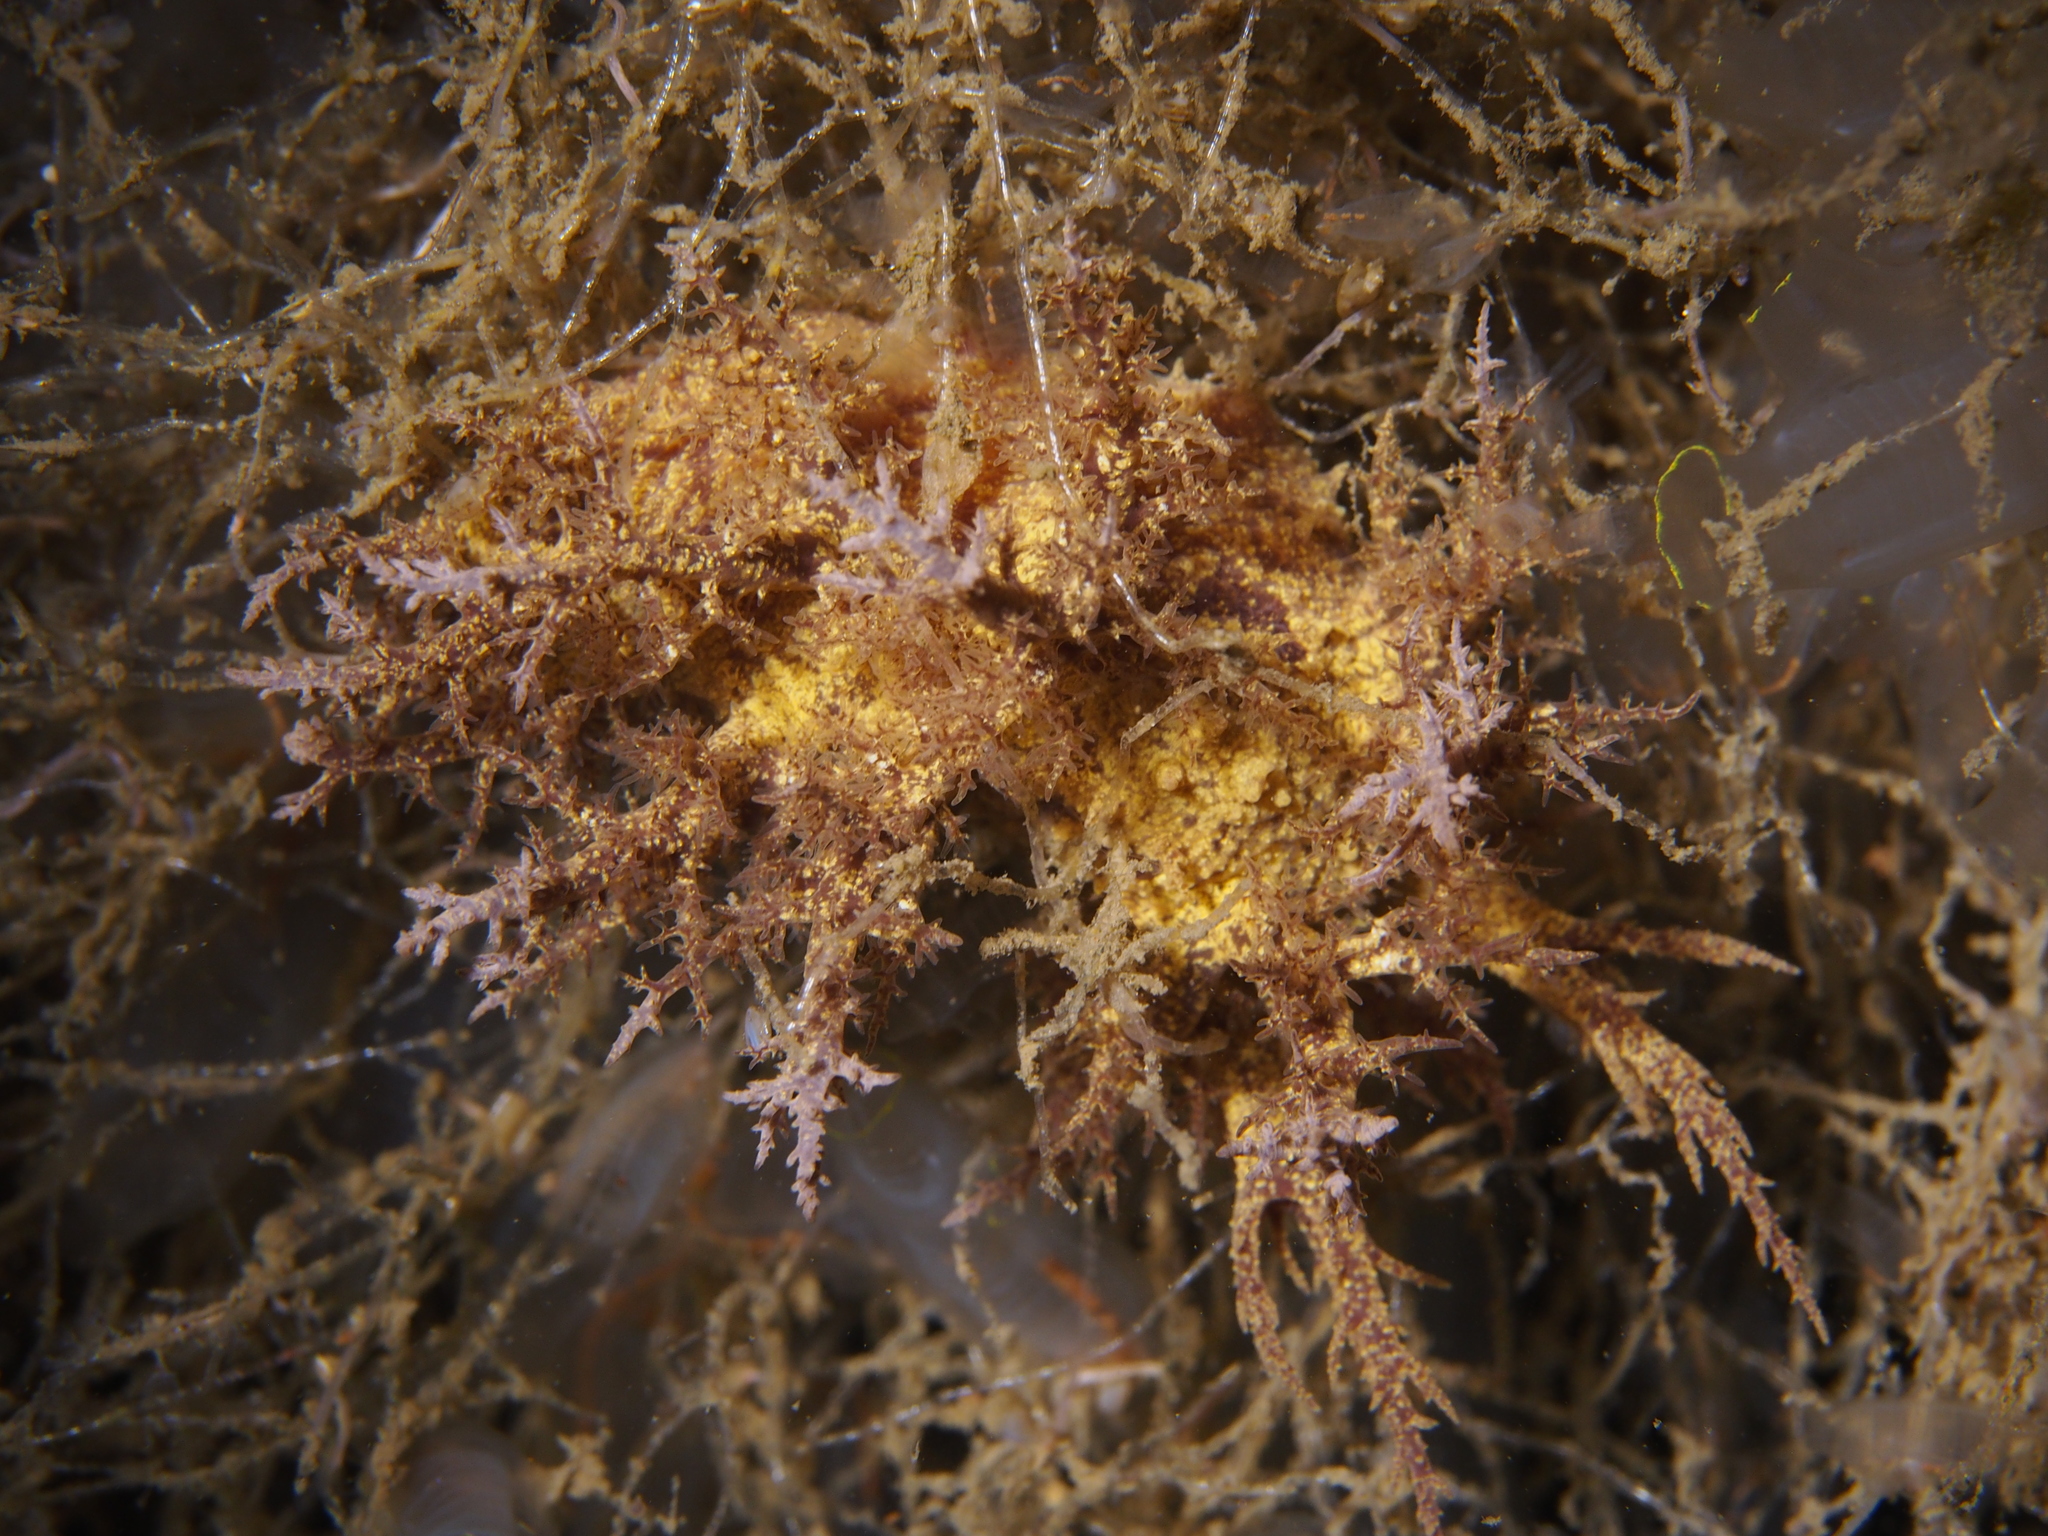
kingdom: Animalia
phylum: Mollusca
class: Gastropoda
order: Nudibranchia
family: Dendronotidae
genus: Dendronotus
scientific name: Dendronotus europaeus
